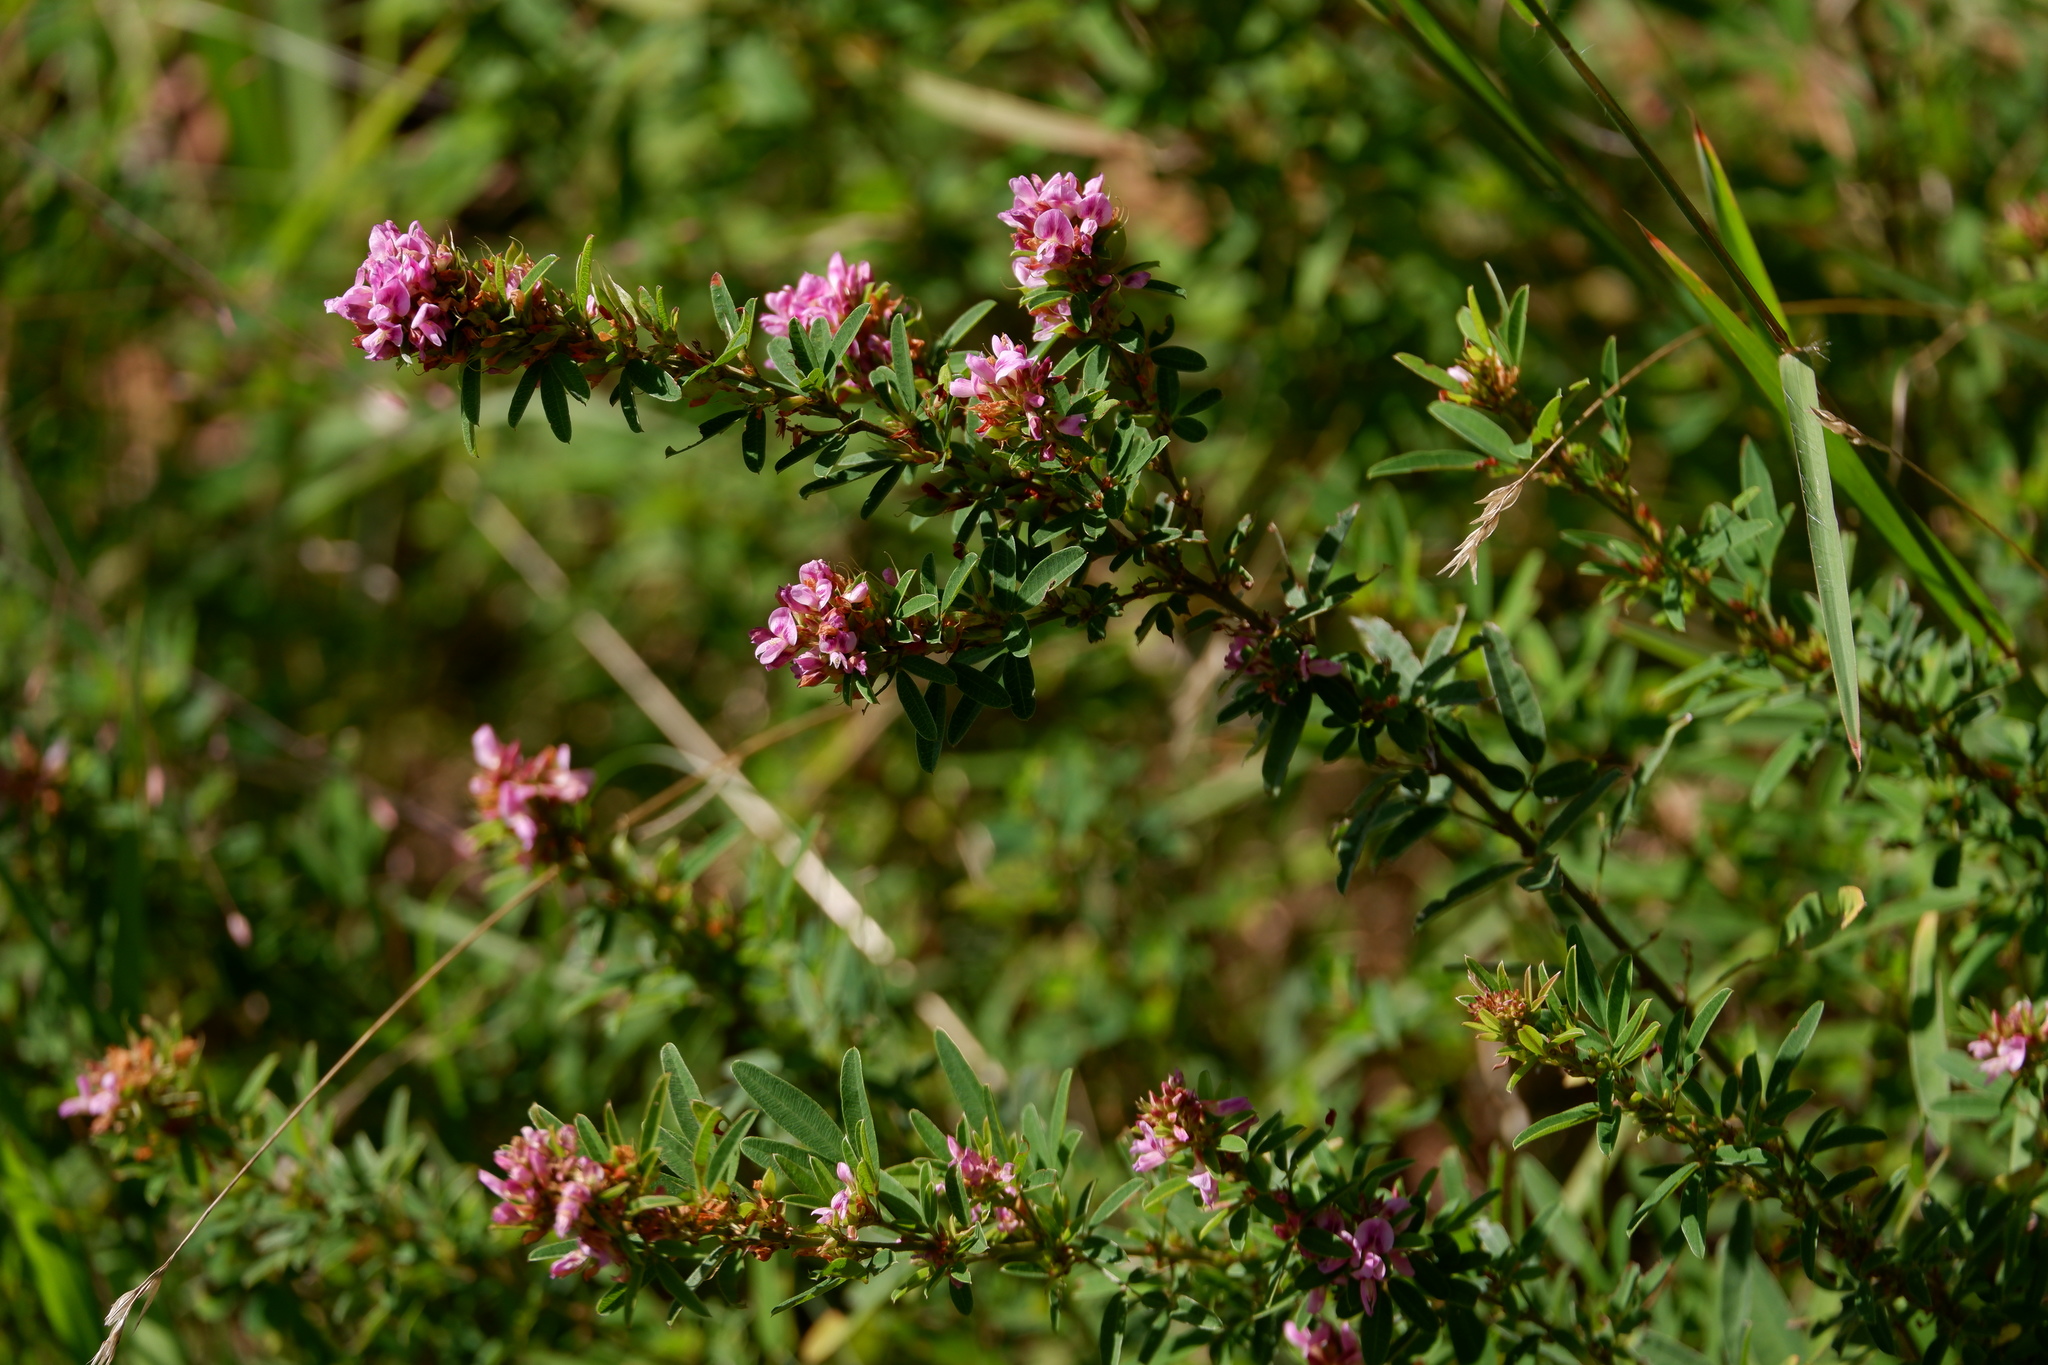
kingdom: Plantae
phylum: Tracheophyta
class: Magnoliopsida
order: Fabales
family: Fabaceae
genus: Lespedeza
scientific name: Lespedeza virginica
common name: Slender bush-clover
